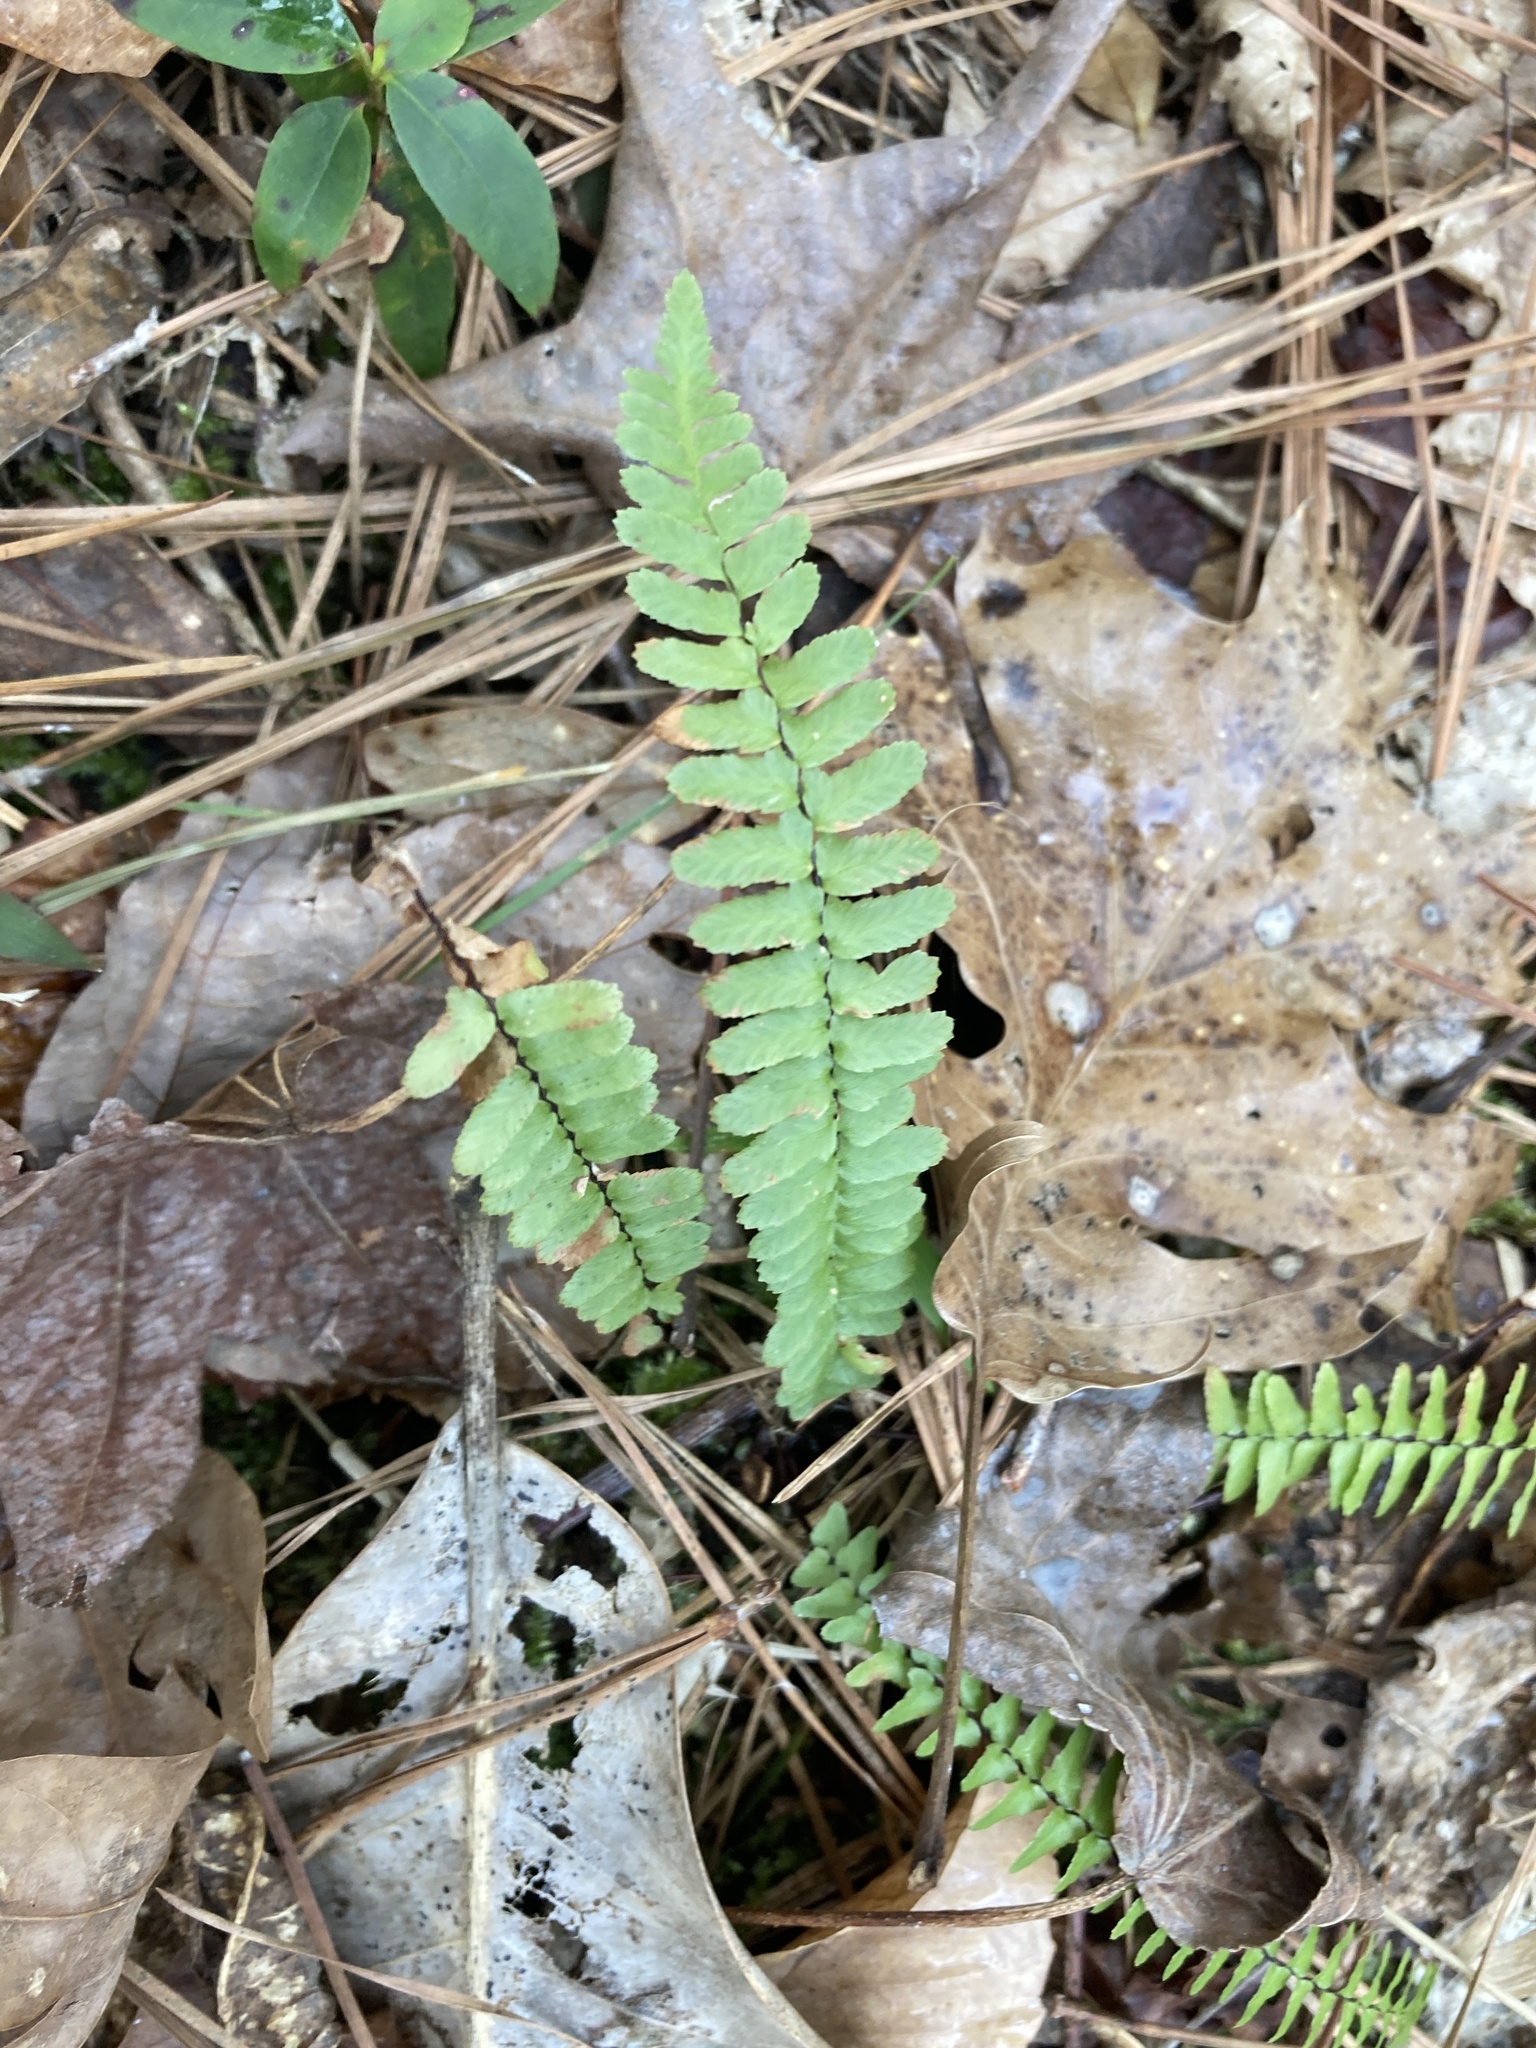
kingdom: Plantae
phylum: Tracheophyta
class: Polypodiopsida
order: Polypodiales
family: Aspleniaceae
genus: Asplenium
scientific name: Asplenium platyneuron
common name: Ebony spleenwort
